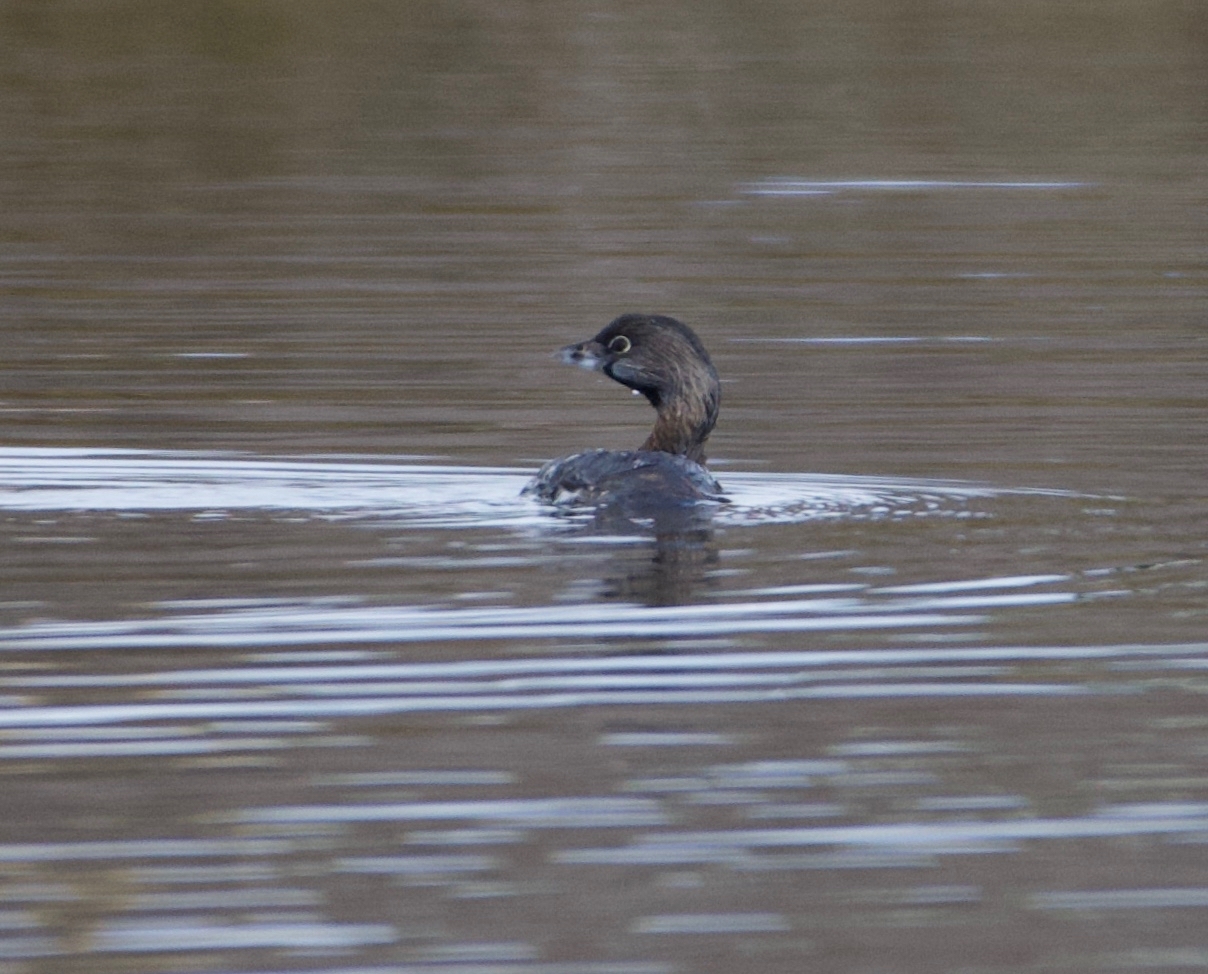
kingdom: Animalia
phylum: Chordata
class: Aves
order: Podicipediformes
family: Podicipedidae
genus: Podilymbus
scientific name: Podilymbus podiceps
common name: Pied-billed grebe
